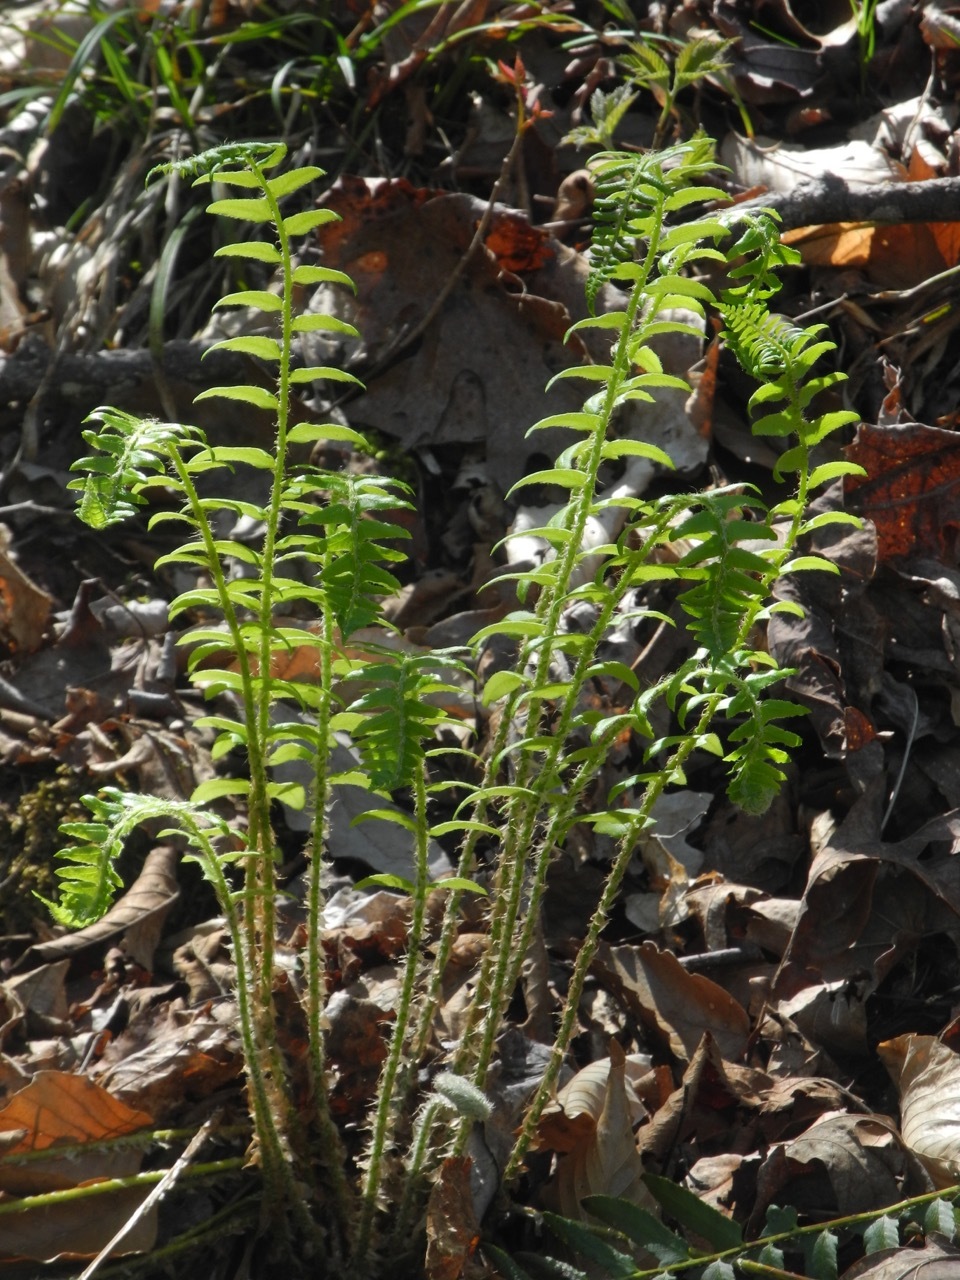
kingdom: Plantae
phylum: Tracheophyta
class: Polypodiopsida
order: Polypodiales
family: Dryopteridaceae
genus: Polystichum
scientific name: Polystichum acrostichoides
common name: Christmas fern
